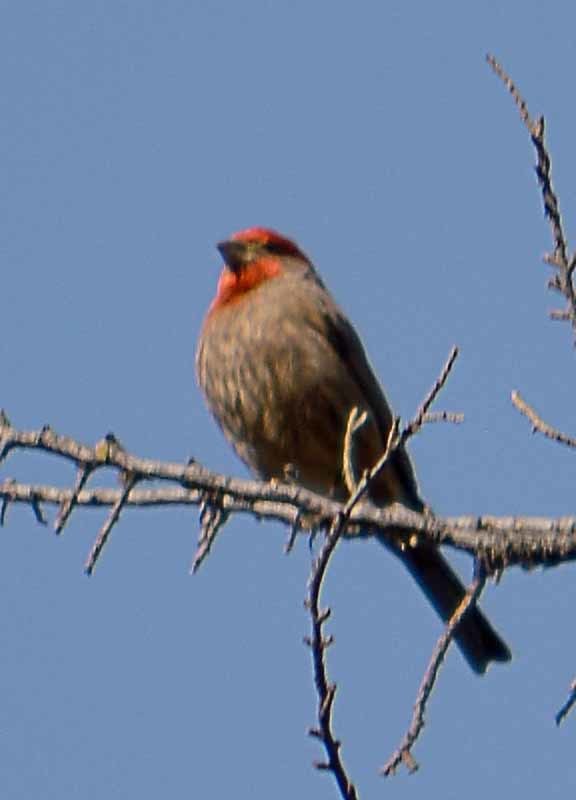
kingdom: Animalia
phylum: Chordata
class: Aves
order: Passeriformes
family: Fringillidae
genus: Haemorhous
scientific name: Haemorhous mexicanus
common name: House finch
